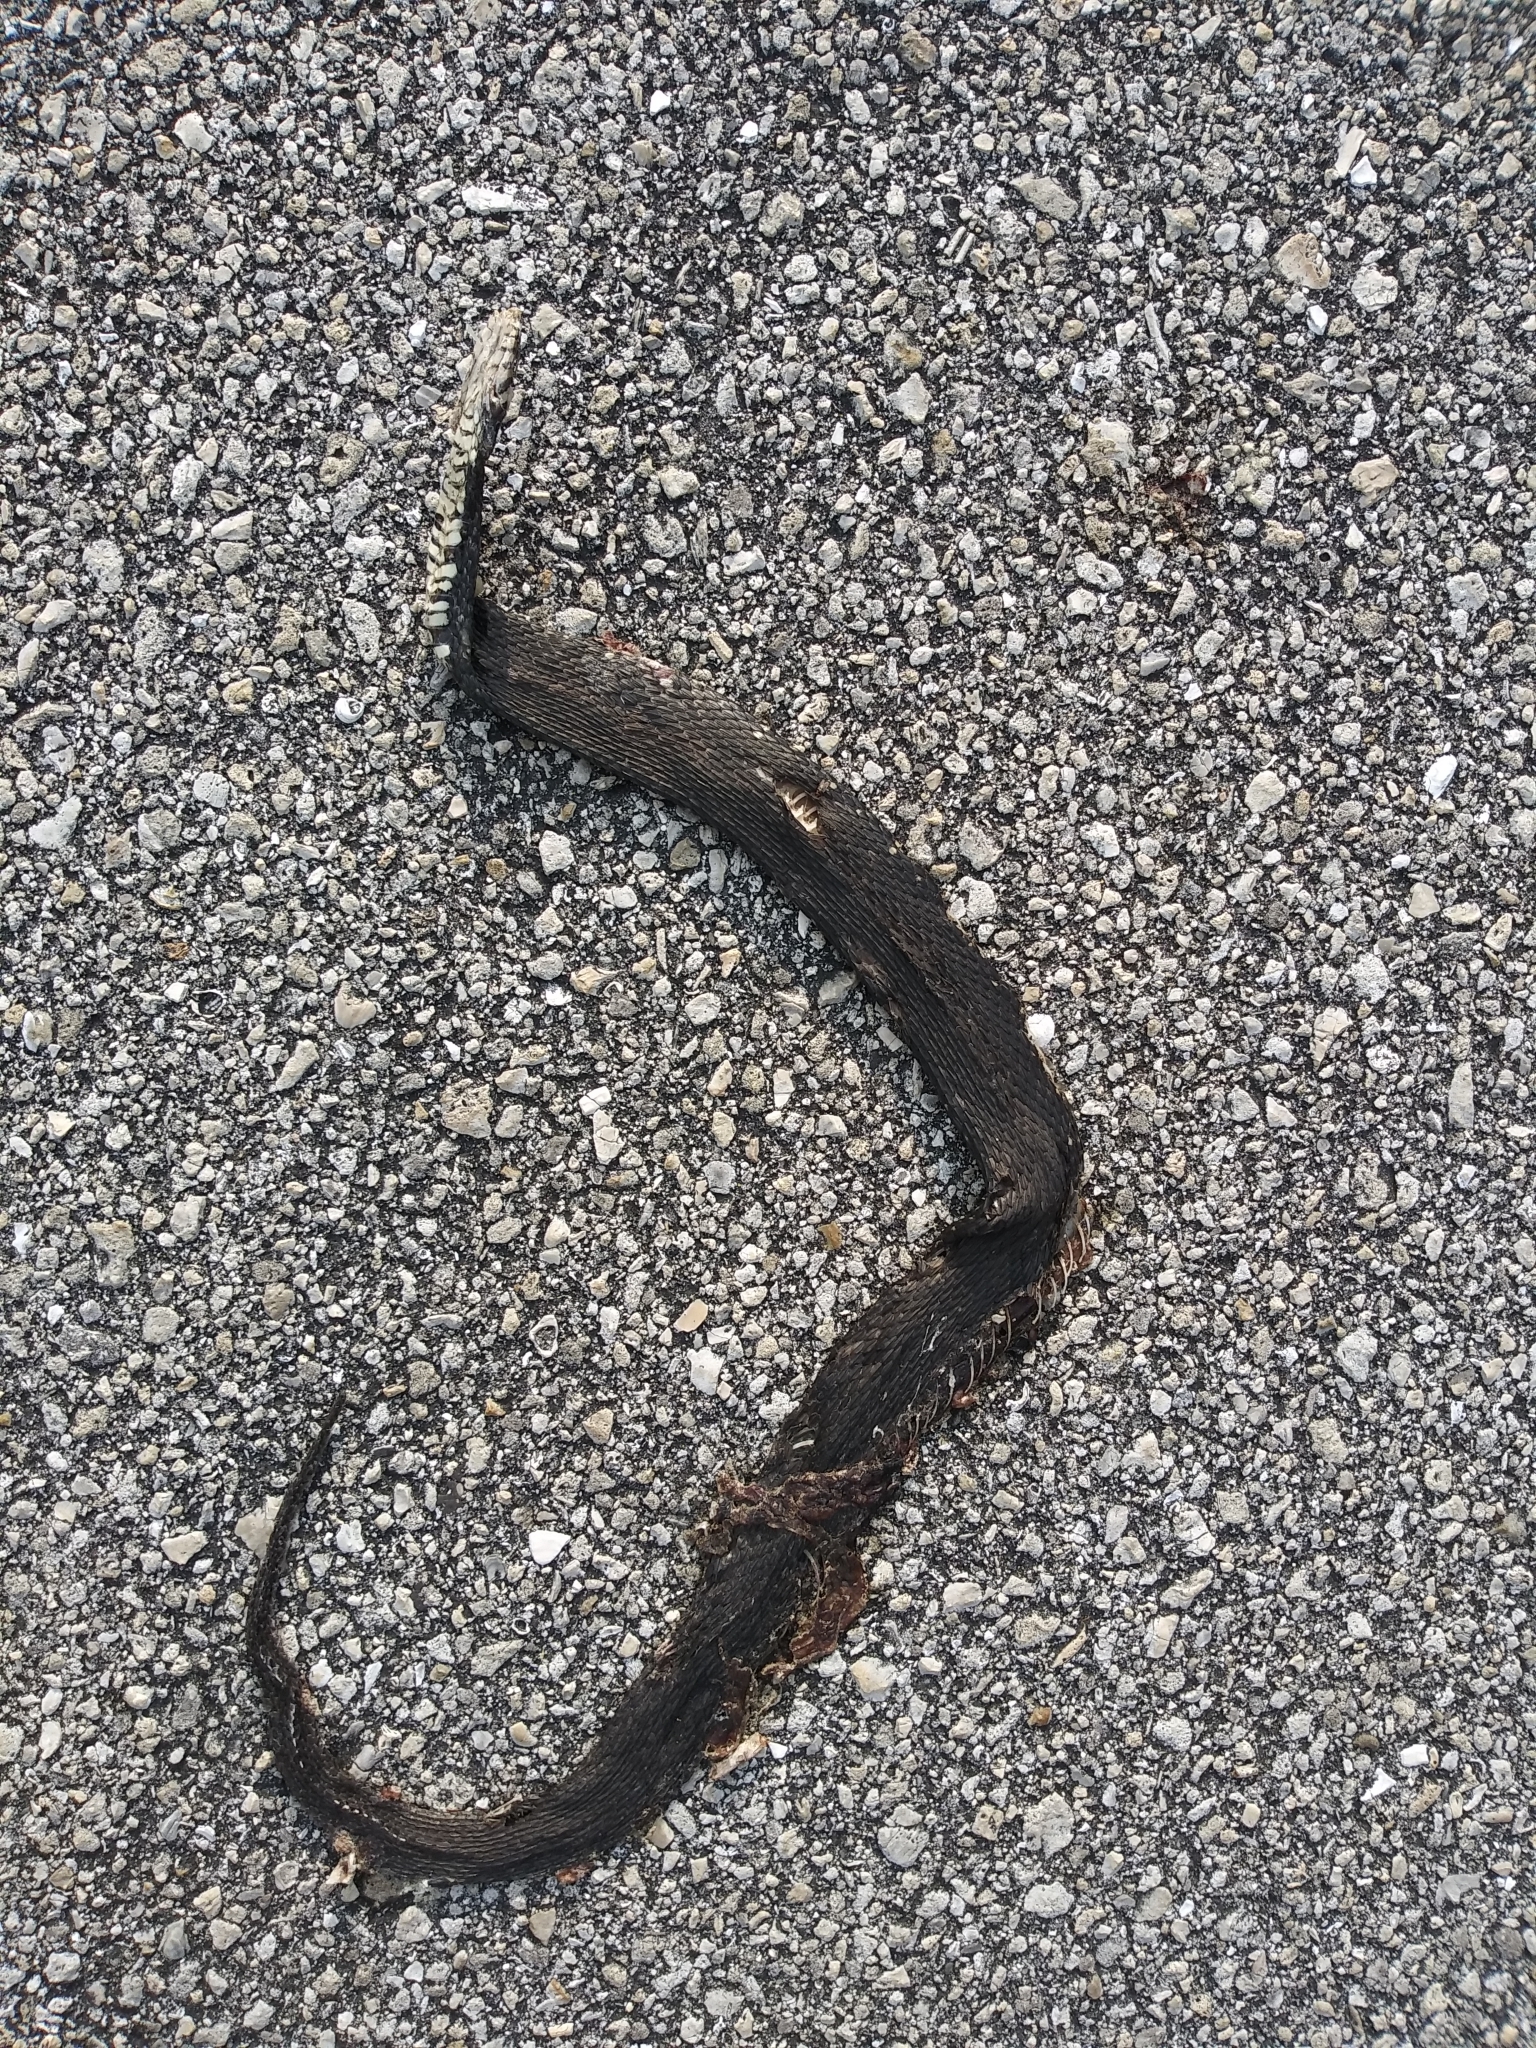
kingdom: Animalia
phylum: Chordata
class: Squamata
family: Colubridae
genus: Nerodia
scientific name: Nerodia fasciata
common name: Southern water snake
